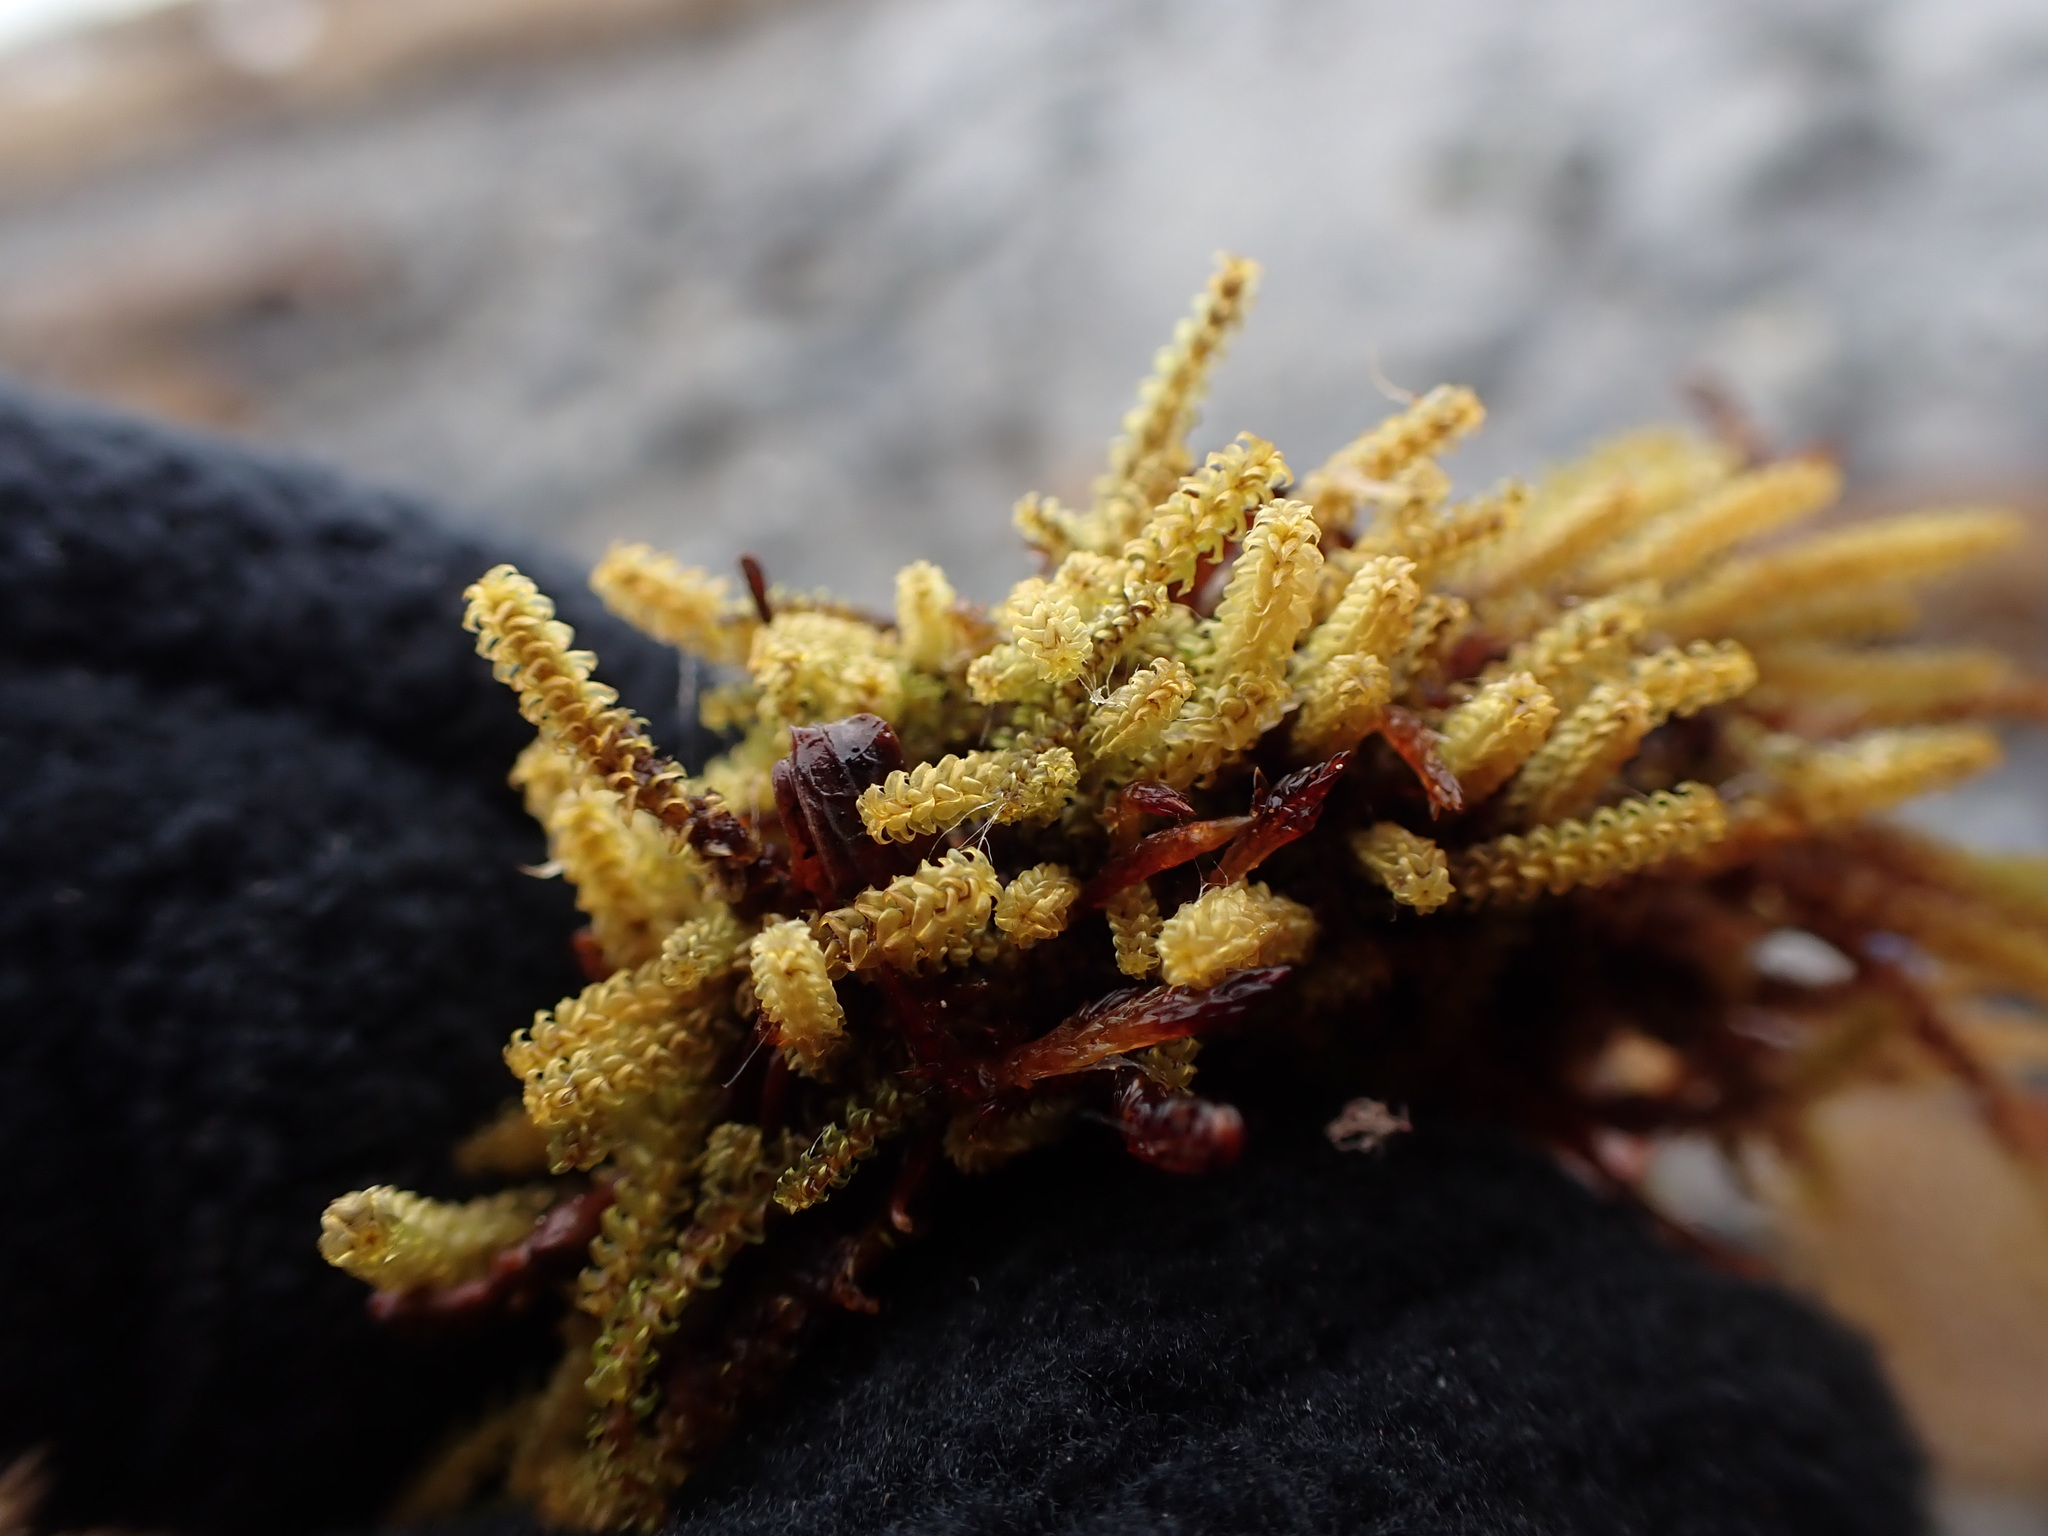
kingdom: Plantae
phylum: Bryophyta
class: Bryopsida
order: Splachnales
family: Meesiaceae
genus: Paludella
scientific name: Paludella squarrosa
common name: Tufted fen moss
